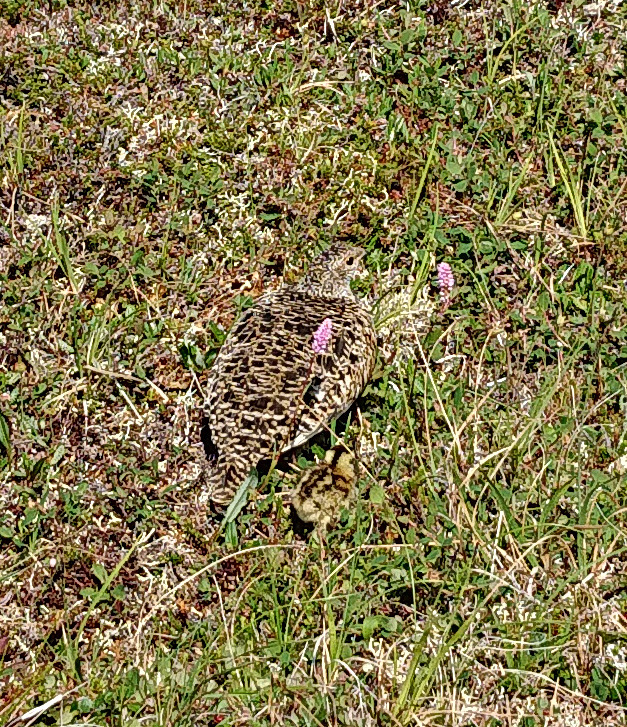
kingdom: Animalia
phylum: Chordata
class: Aves
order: Galliformes
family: Phasianidae
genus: Lagopus
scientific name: Lagopus muta
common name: Rock ptarmigan
